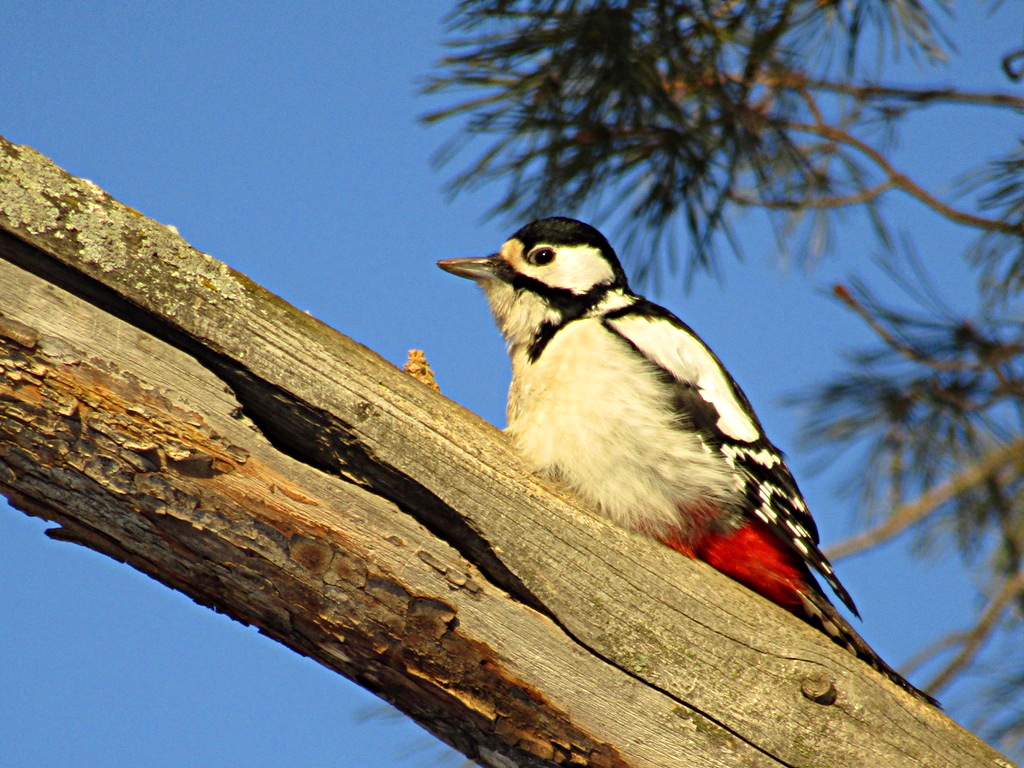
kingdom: Animalia
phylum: Chordata
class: Aves
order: Piciformes
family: Picidae
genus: Dendrocopos
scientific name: Dendrocopos major
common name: Great spotted woodpecker
